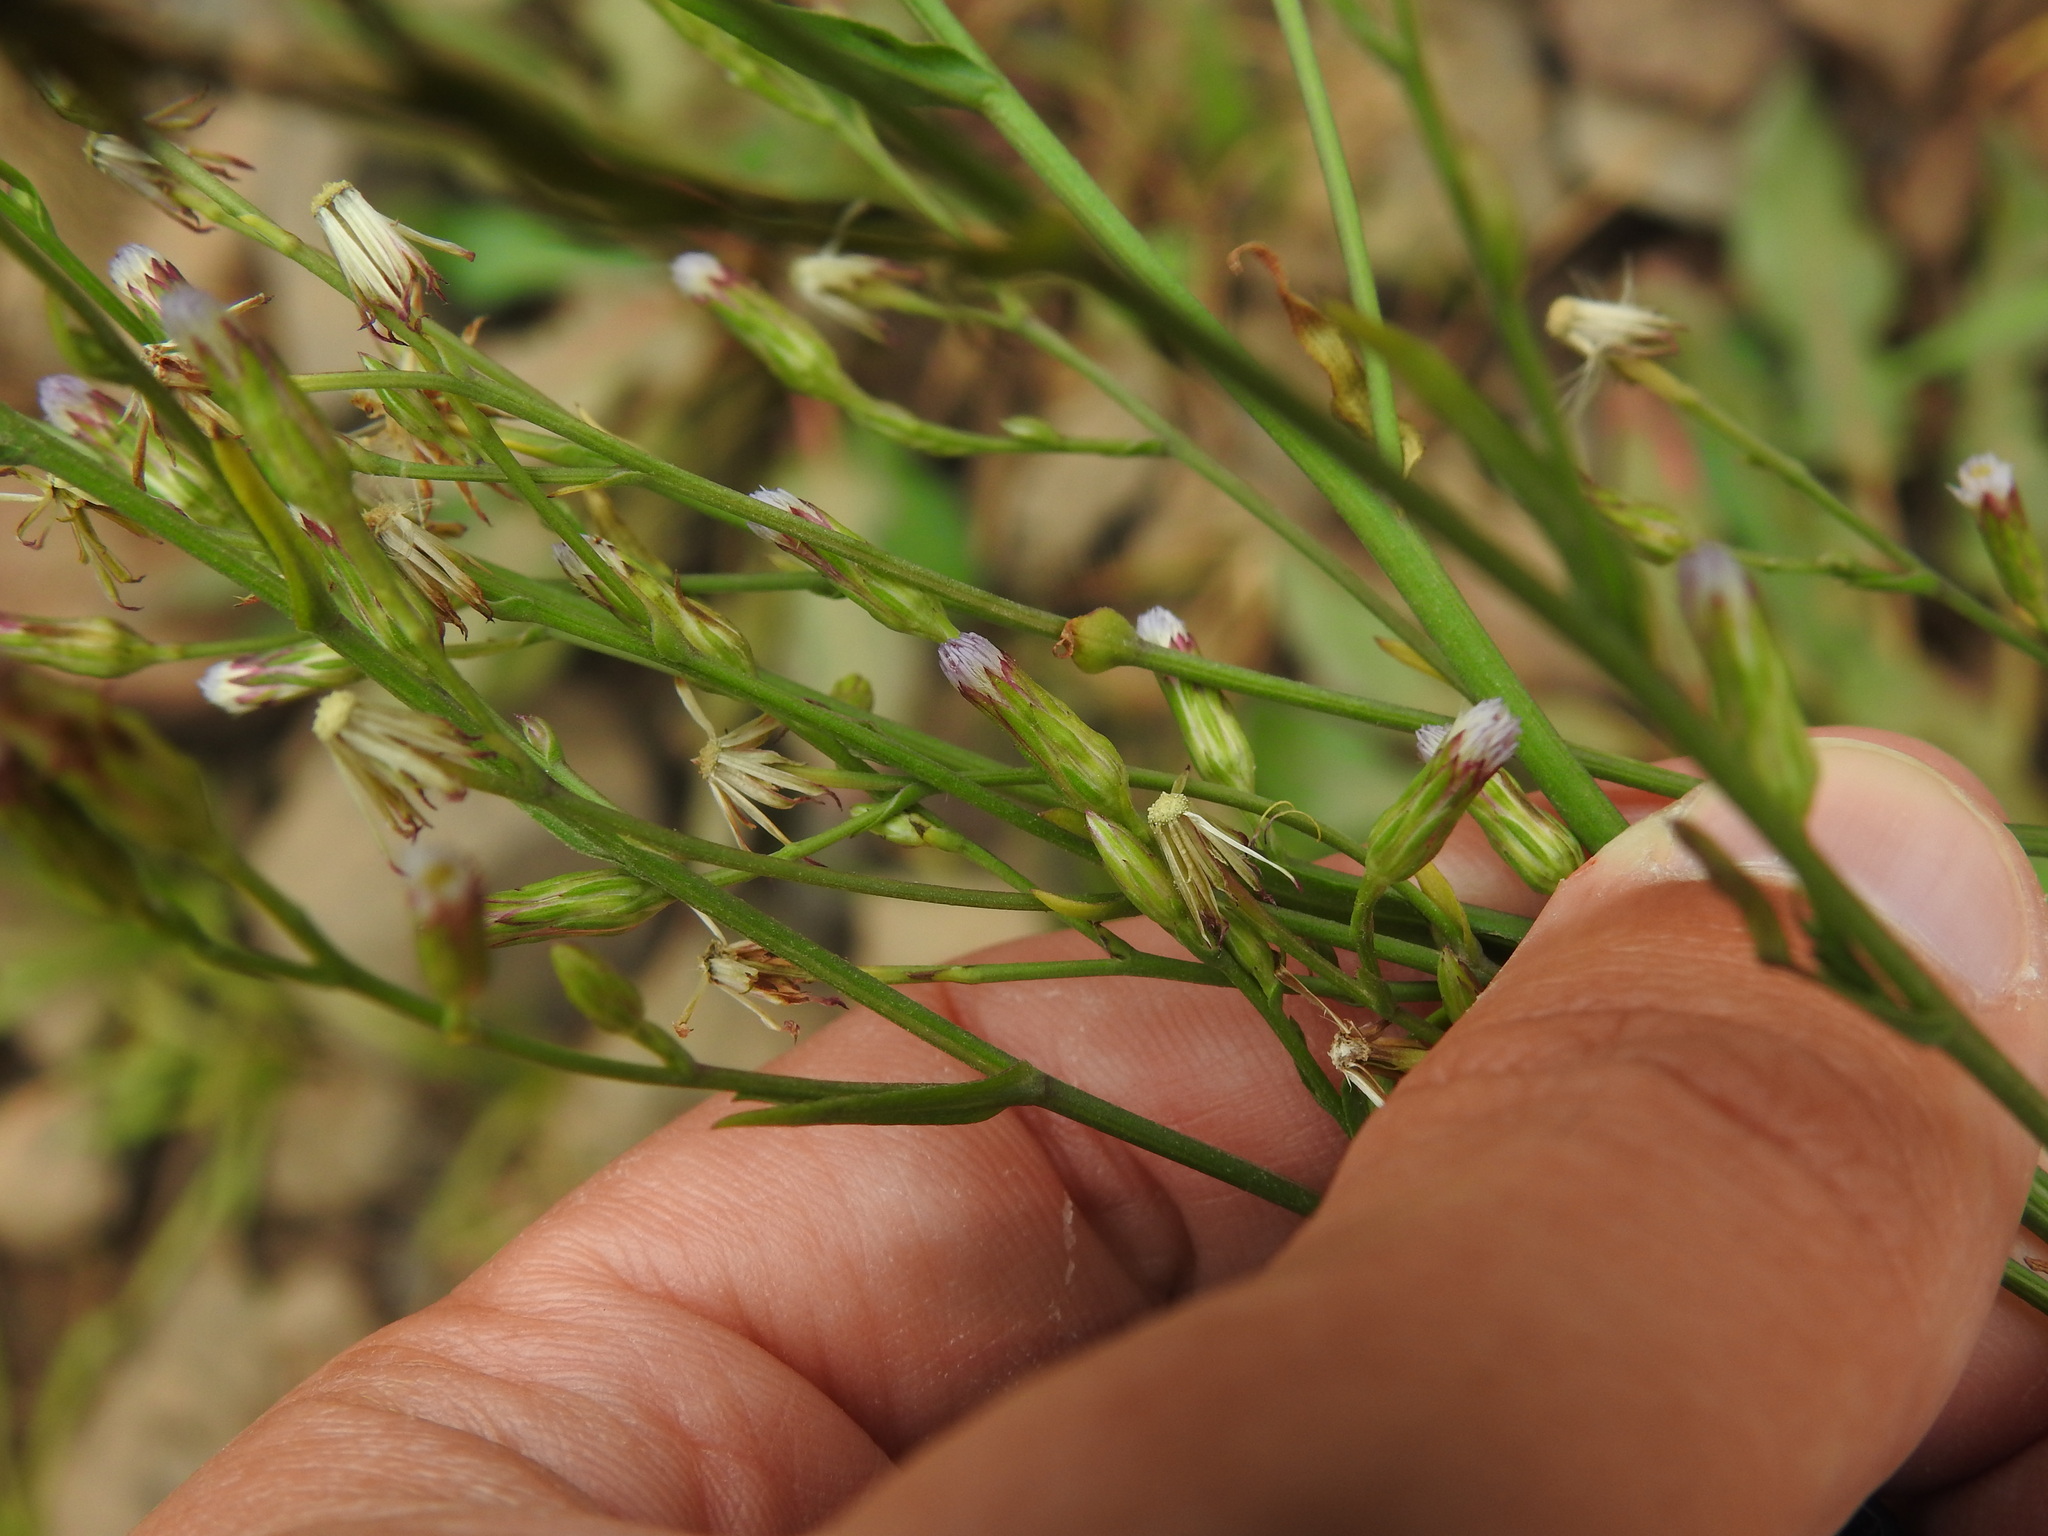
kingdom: Plantae
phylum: Tracheophyta
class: Magnoliopsida
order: Asterales
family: Asteraceae
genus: Symphyotrichum
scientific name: Symphyotrichum squamatum
